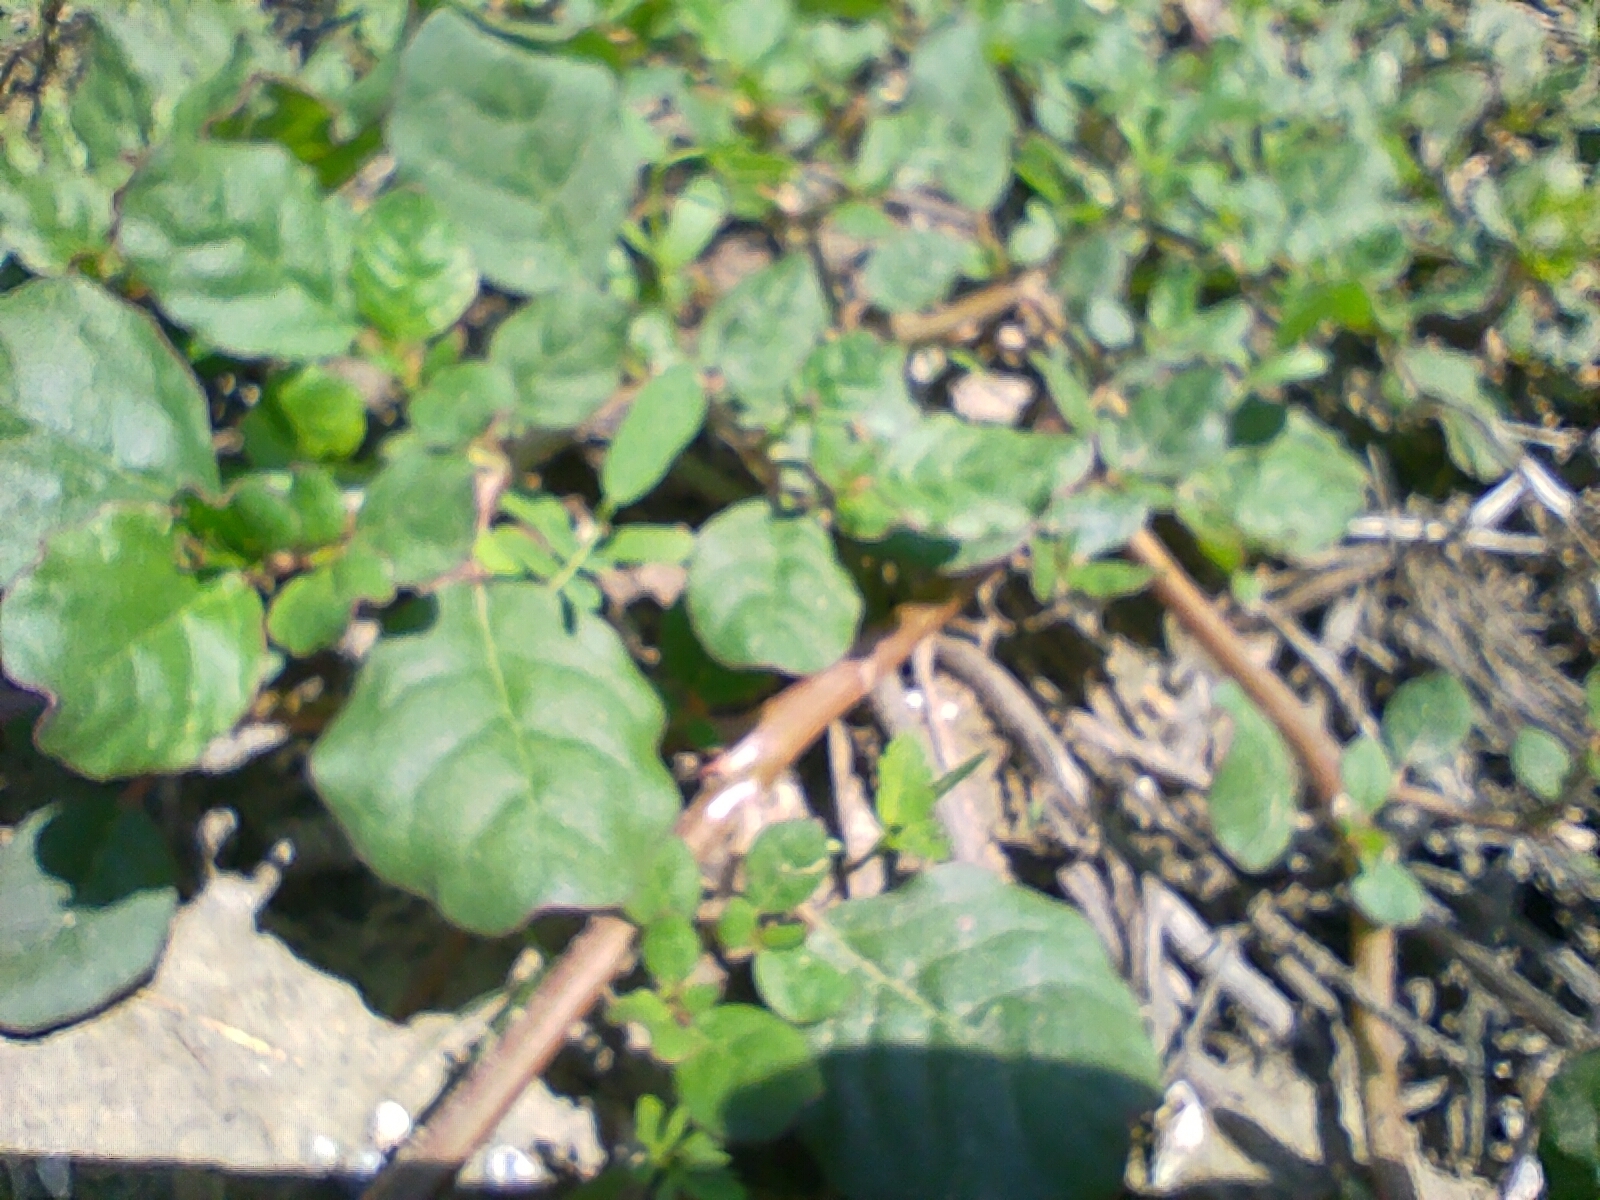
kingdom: Plantae
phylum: Tracheophyta
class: Magnoliopsida
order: Caryophyllales
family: Aizoaceae
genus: Trianthema
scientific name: Trianthema portulacastrum
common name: Desert horsepurslane
